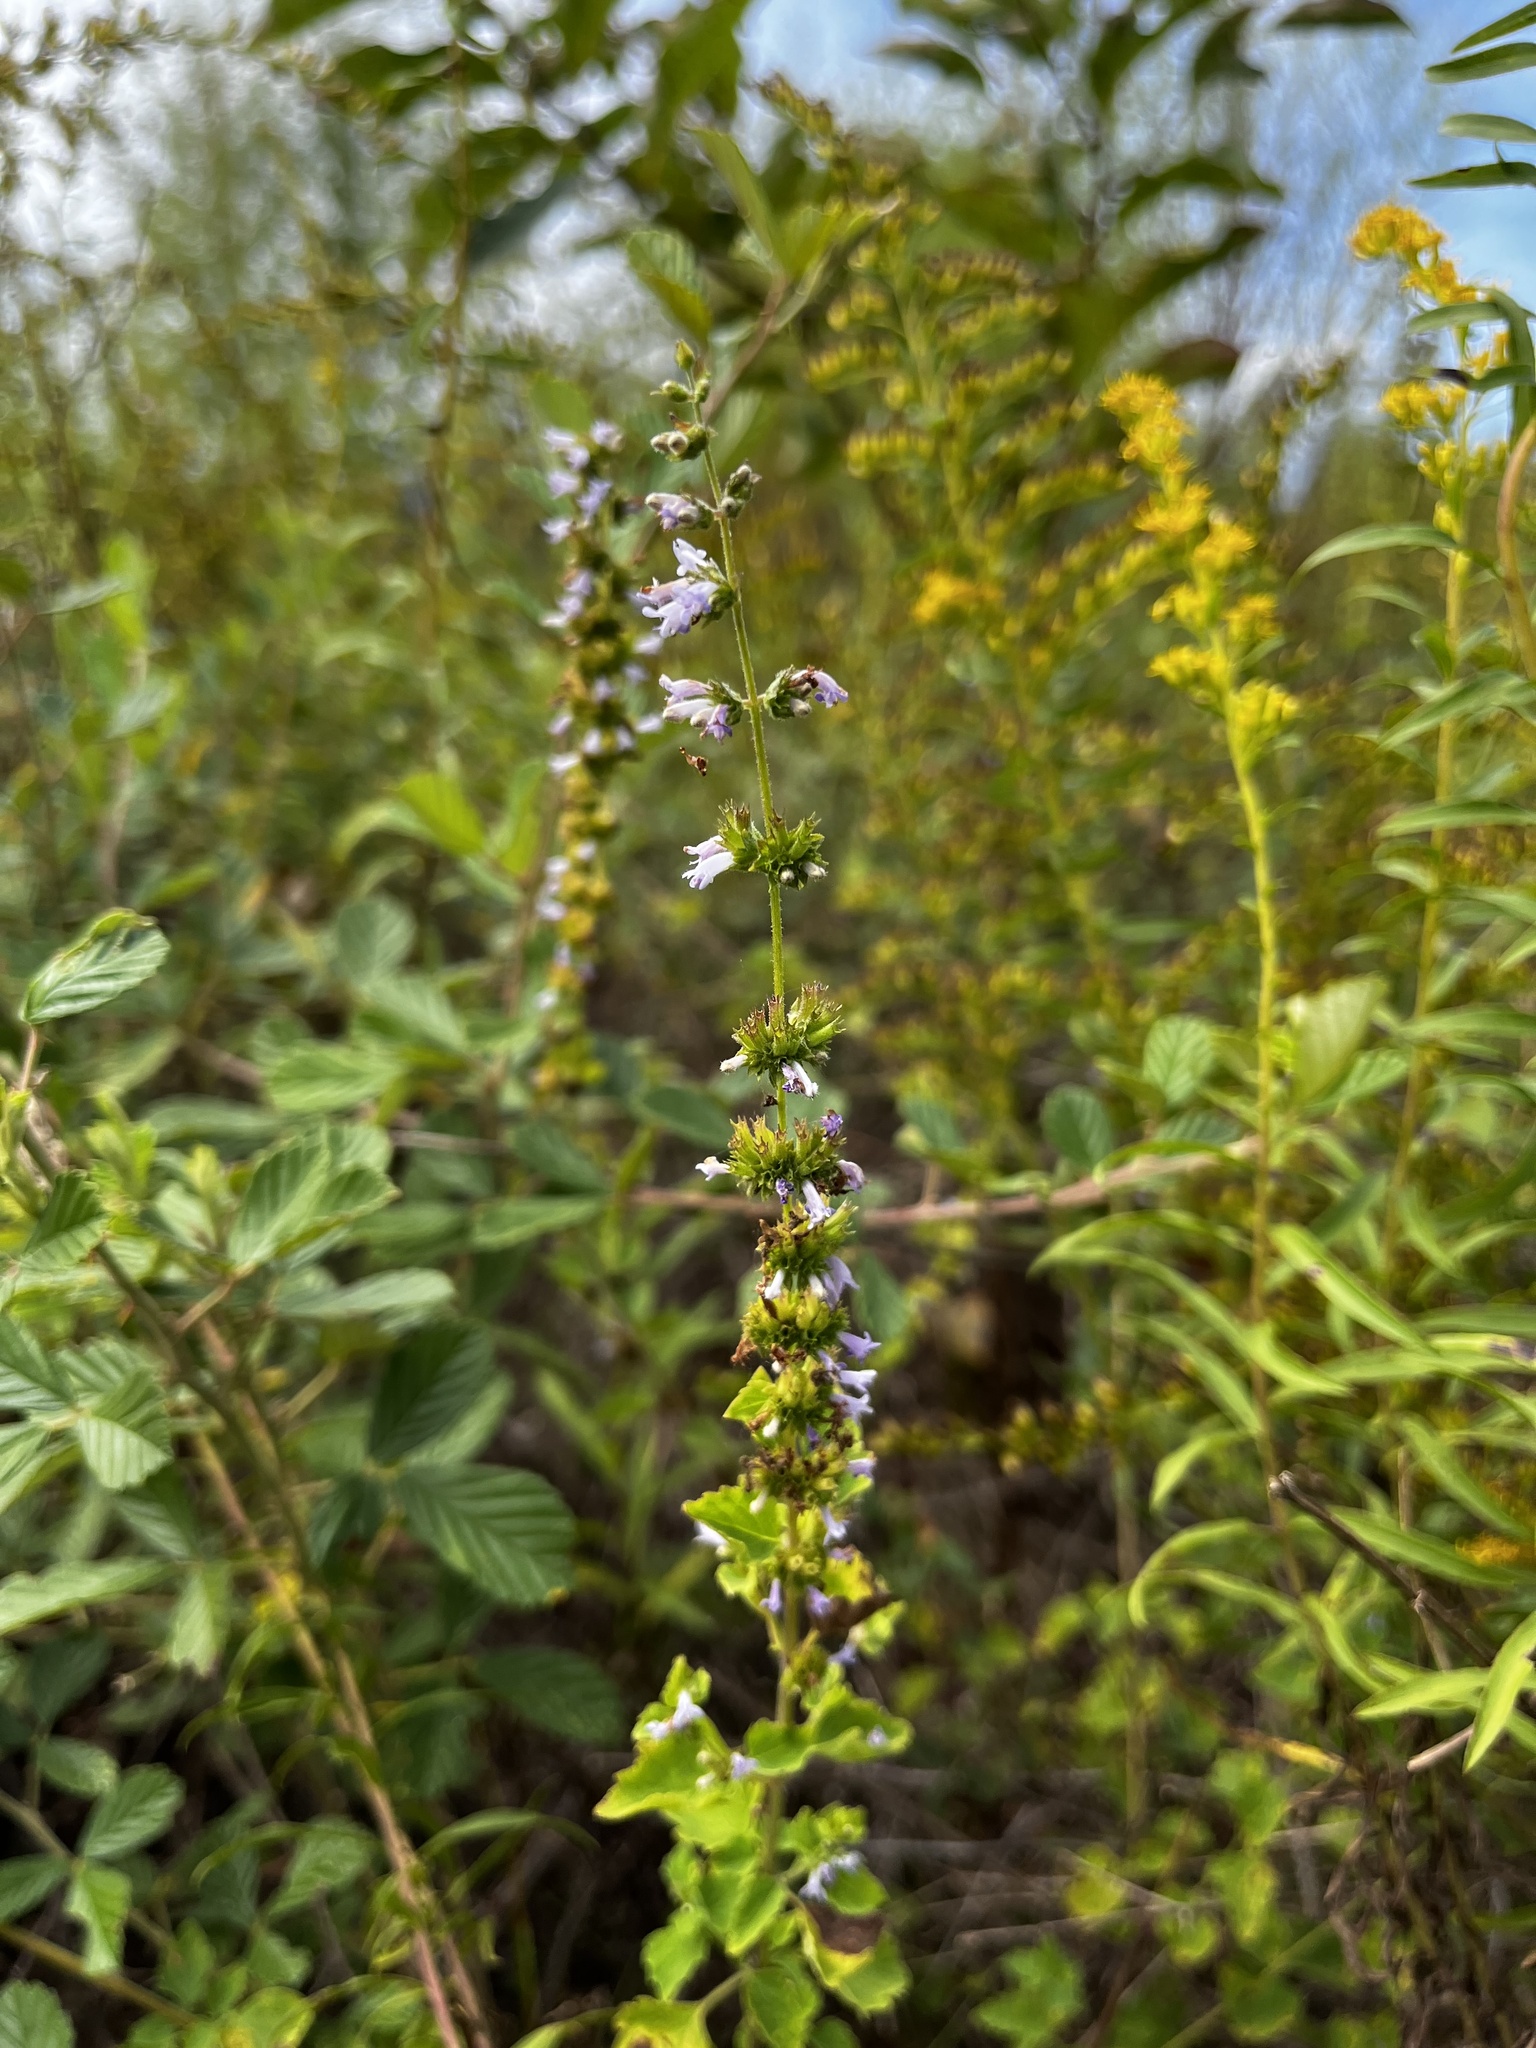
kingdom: Plantae
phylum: Tracheophyta
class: Magnoliopsida
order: Lamiales
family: Lamiaceae
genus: Cantinoa
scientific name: Cantinoa mutabilis
